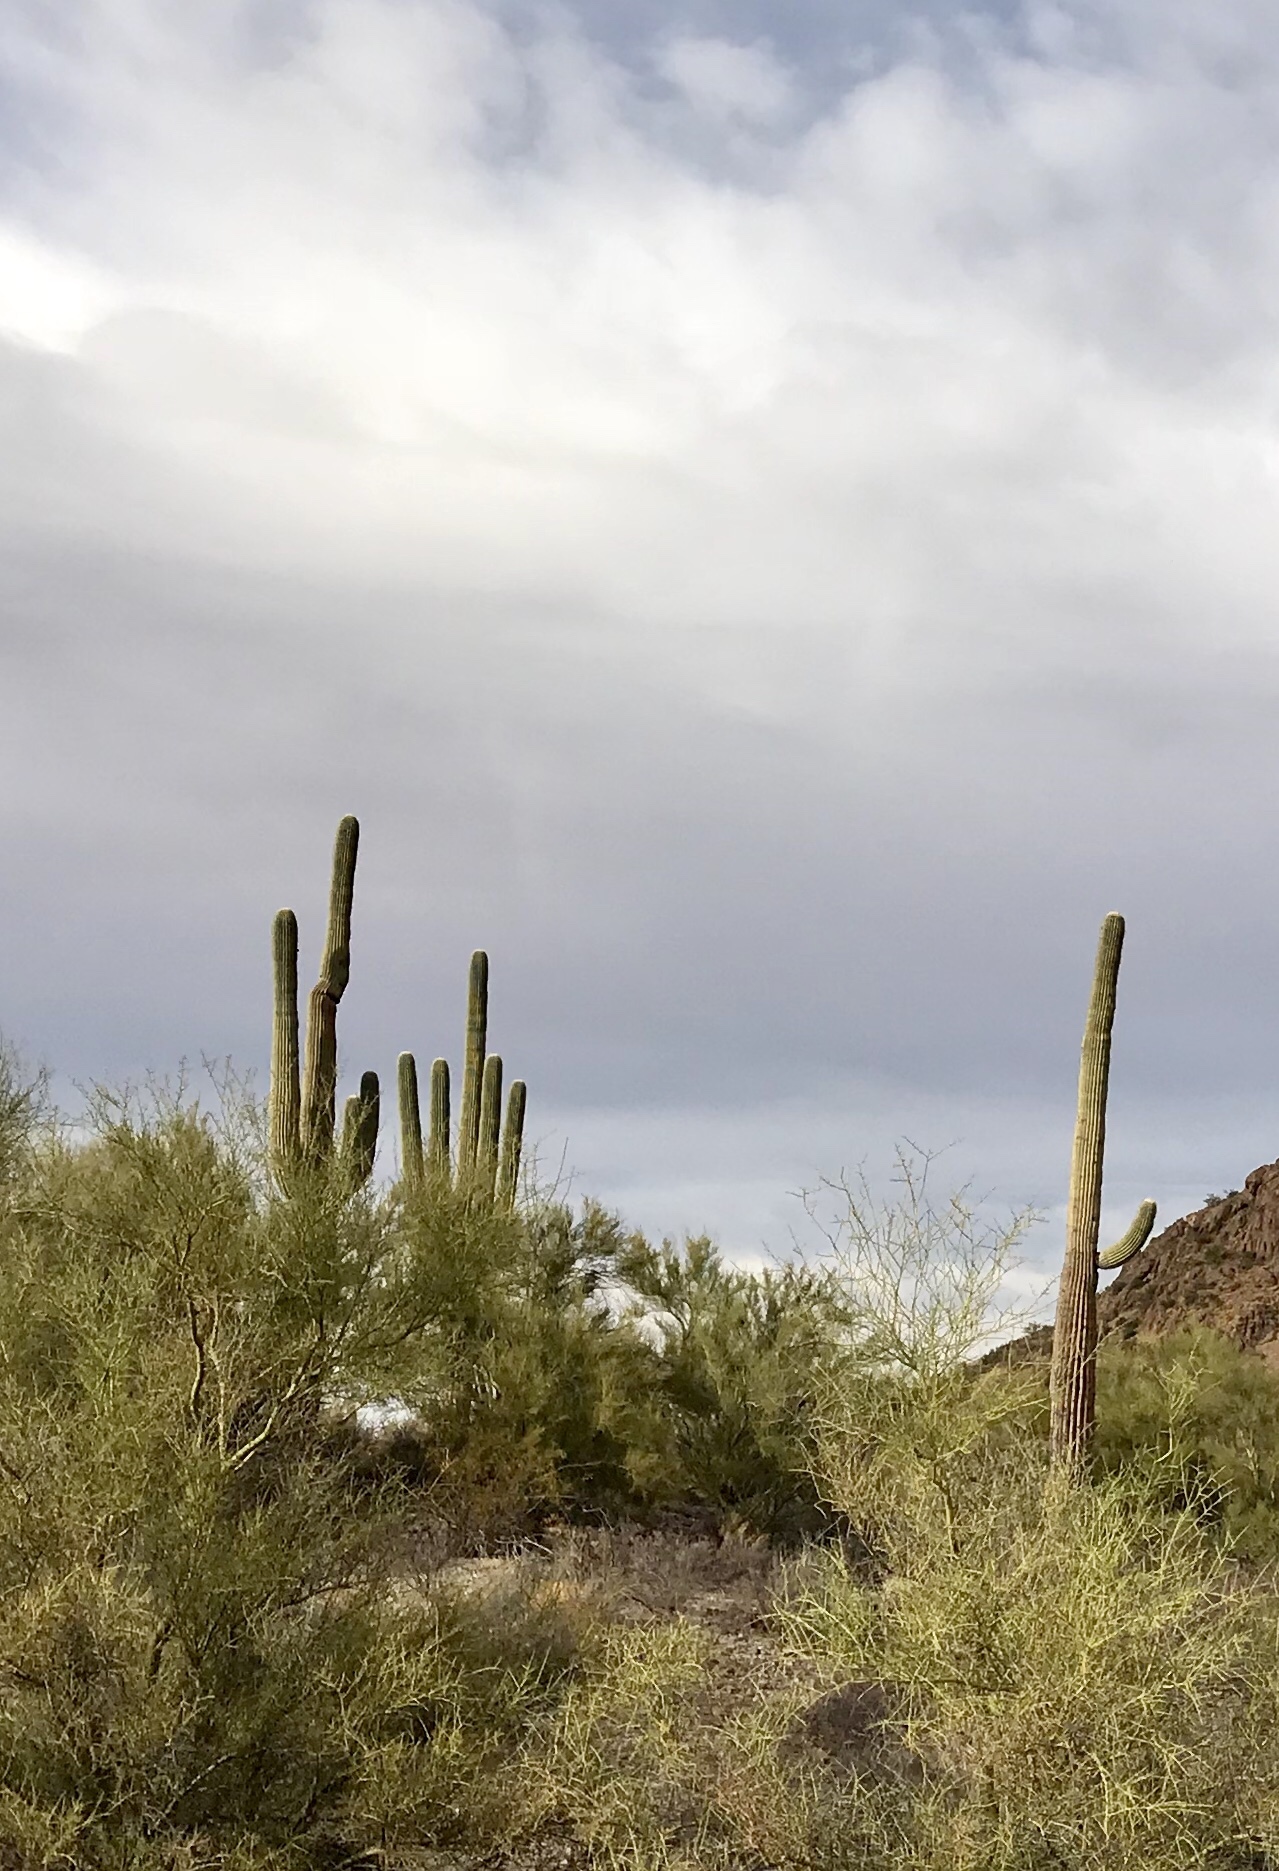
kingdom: Plantae
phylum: Tracheophyta
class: Magnoliopsida
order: Caryophyllales
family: Cactaceae
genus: Carnegiea
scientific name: Carnegiea gigantea
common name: Saguaro
